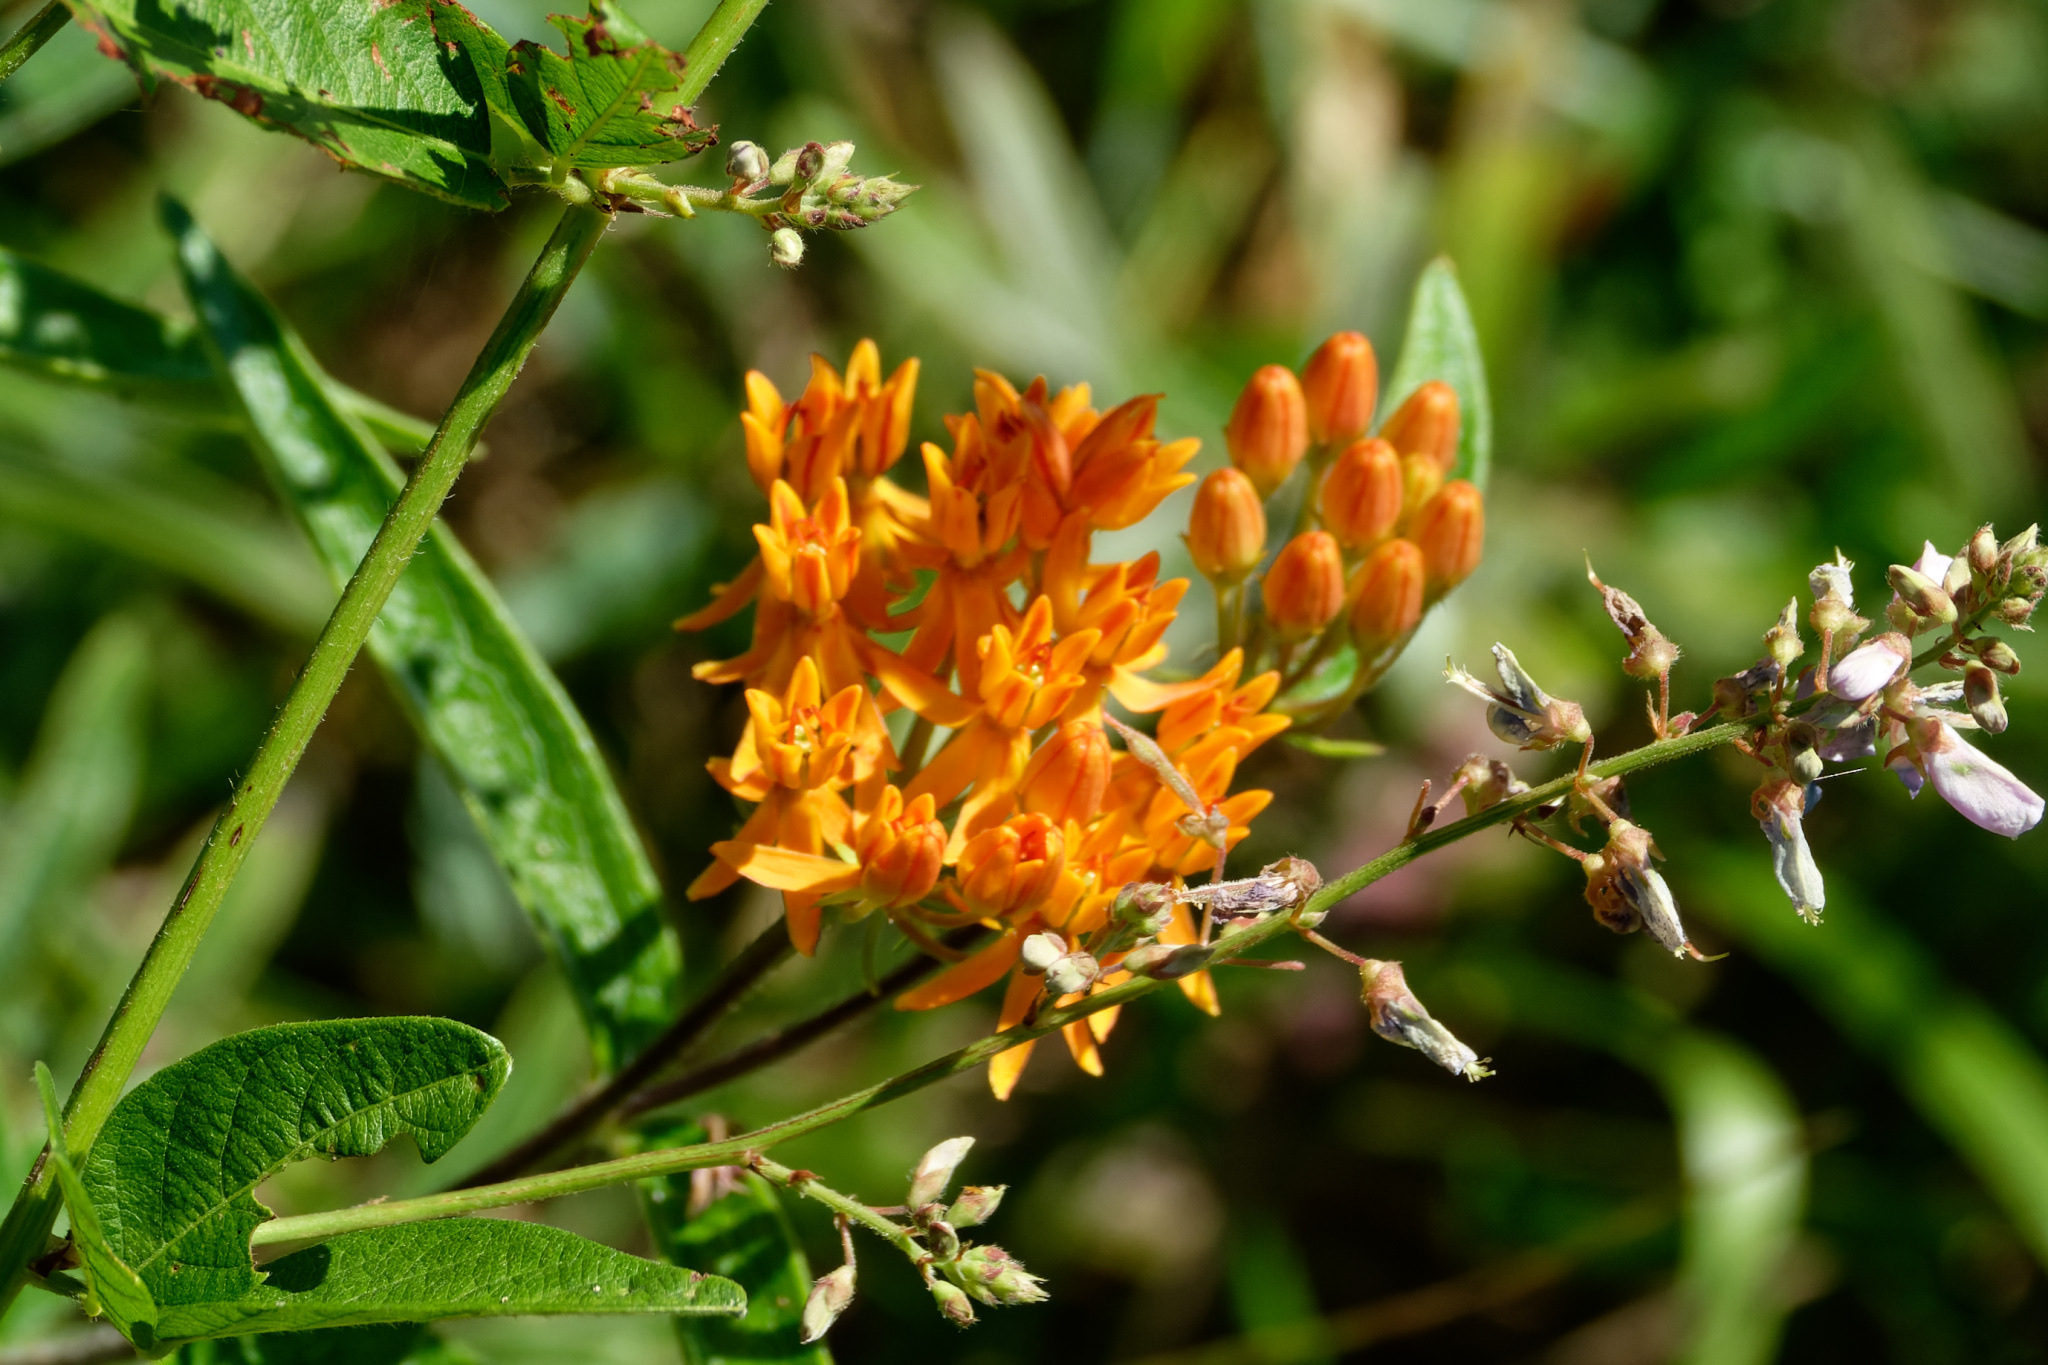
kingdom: Plantae
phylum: Tracheophyta
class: Magnoliopsida
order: Gentianales
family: Apocynaceae
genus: Asclepias
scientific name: Asclepias tuberosa
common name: Butterfly milkweed
